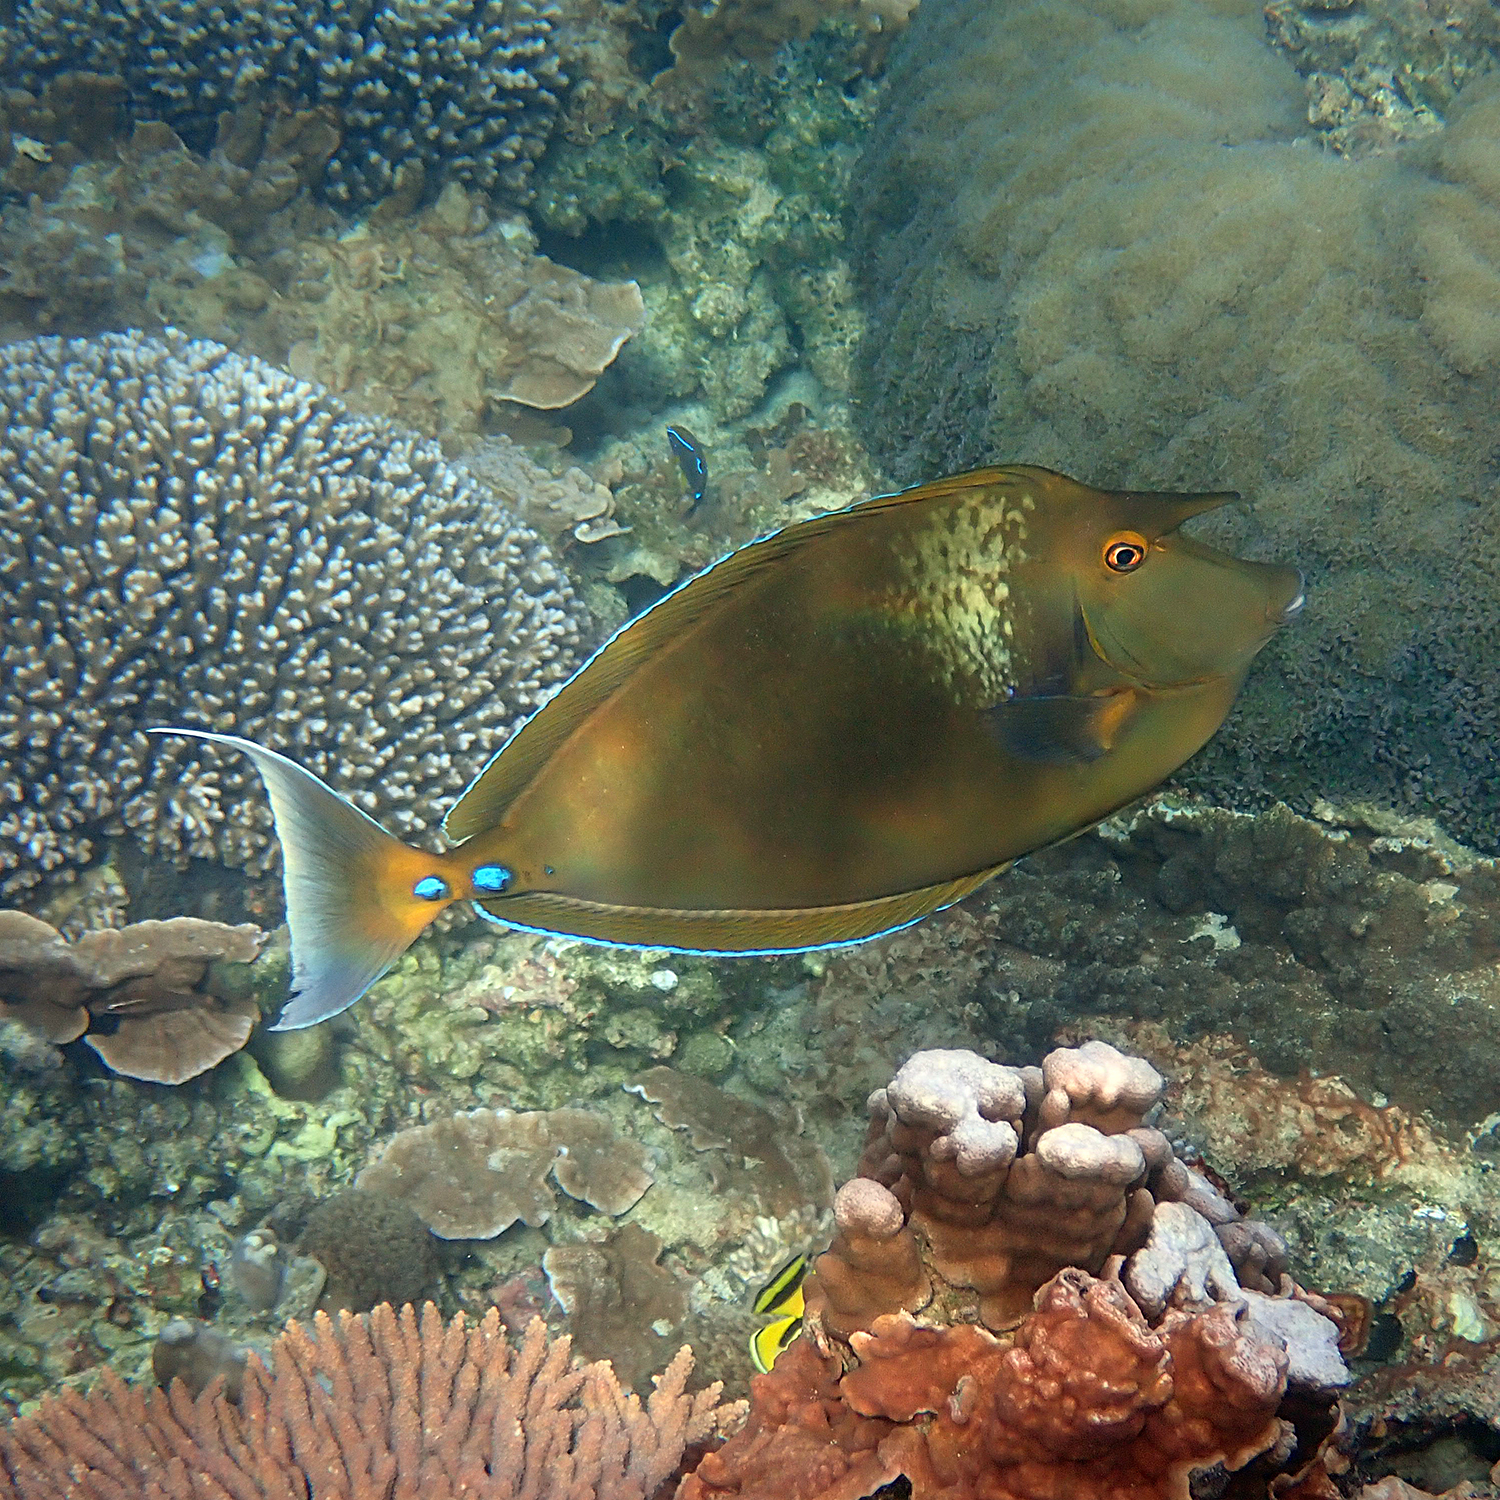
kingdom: Animalia
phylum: Chordata
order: Perciformes
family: Acanthuridae
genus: Naso
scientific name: Naso unicornis
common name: Bluespine unicornfish
